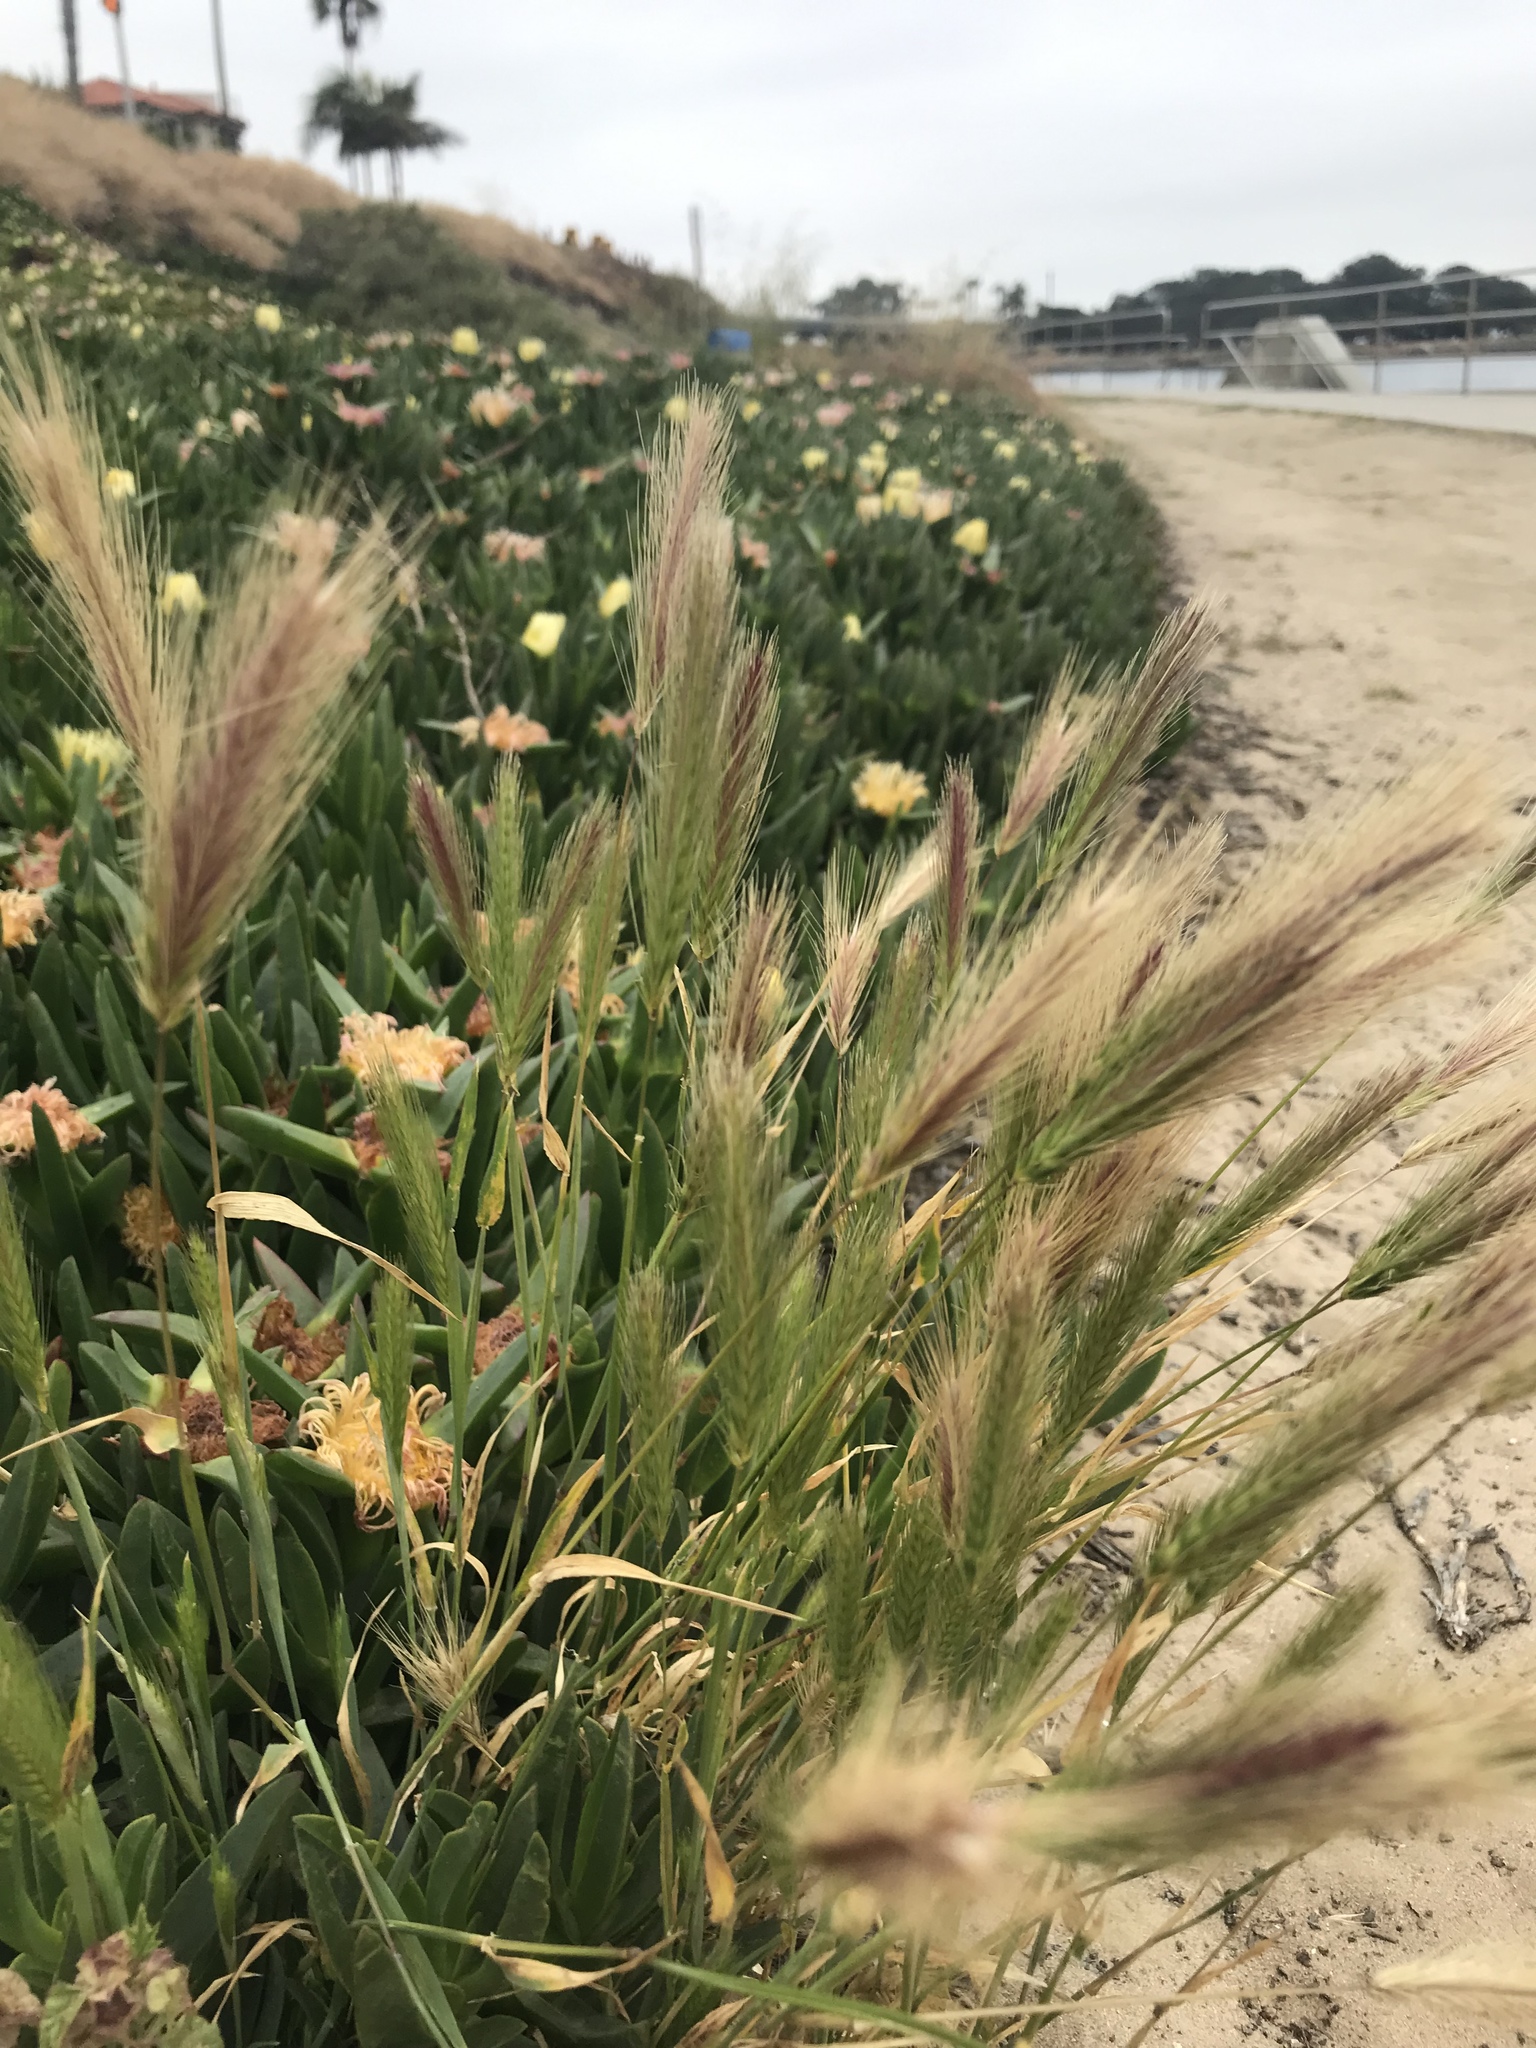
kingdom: Plantae
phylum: Tracheophyta
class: Liliopsida
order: Poales
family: Poaceae
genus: Hordeum
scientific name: Hordeum murinum
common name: Wall barley
